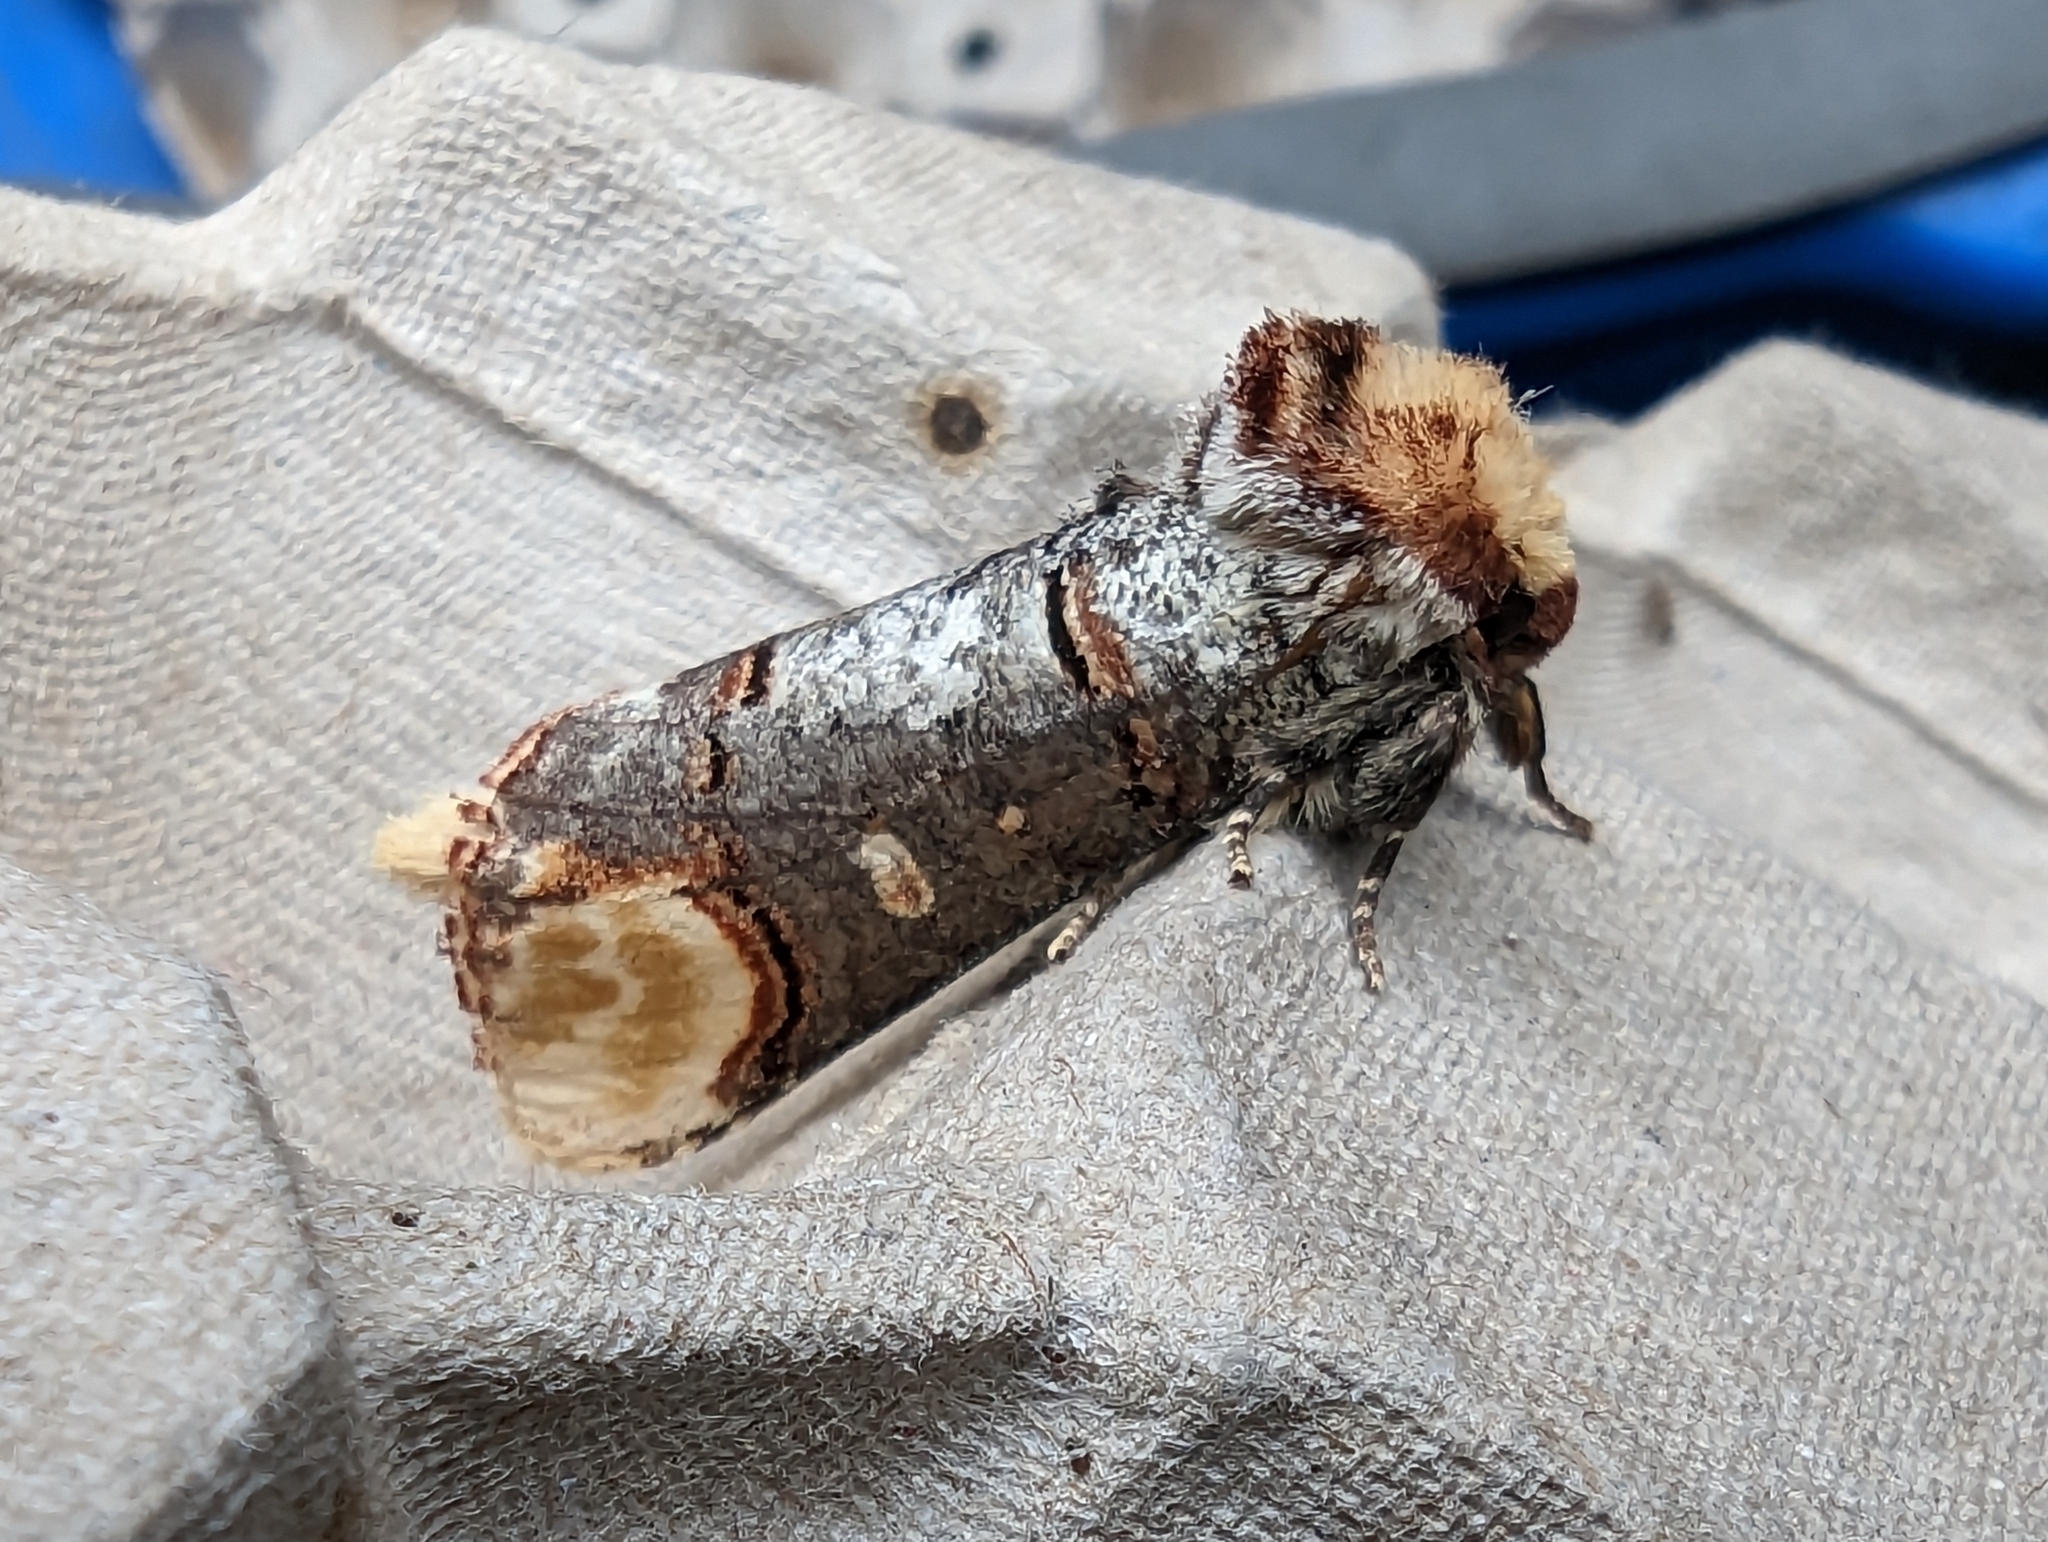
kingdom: Animalia
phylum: Arthropoda
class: Insecta
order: Lepidoptera
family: Notodontidae
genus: Phalera
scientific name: Phalera bucephala
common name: Buff-tip
